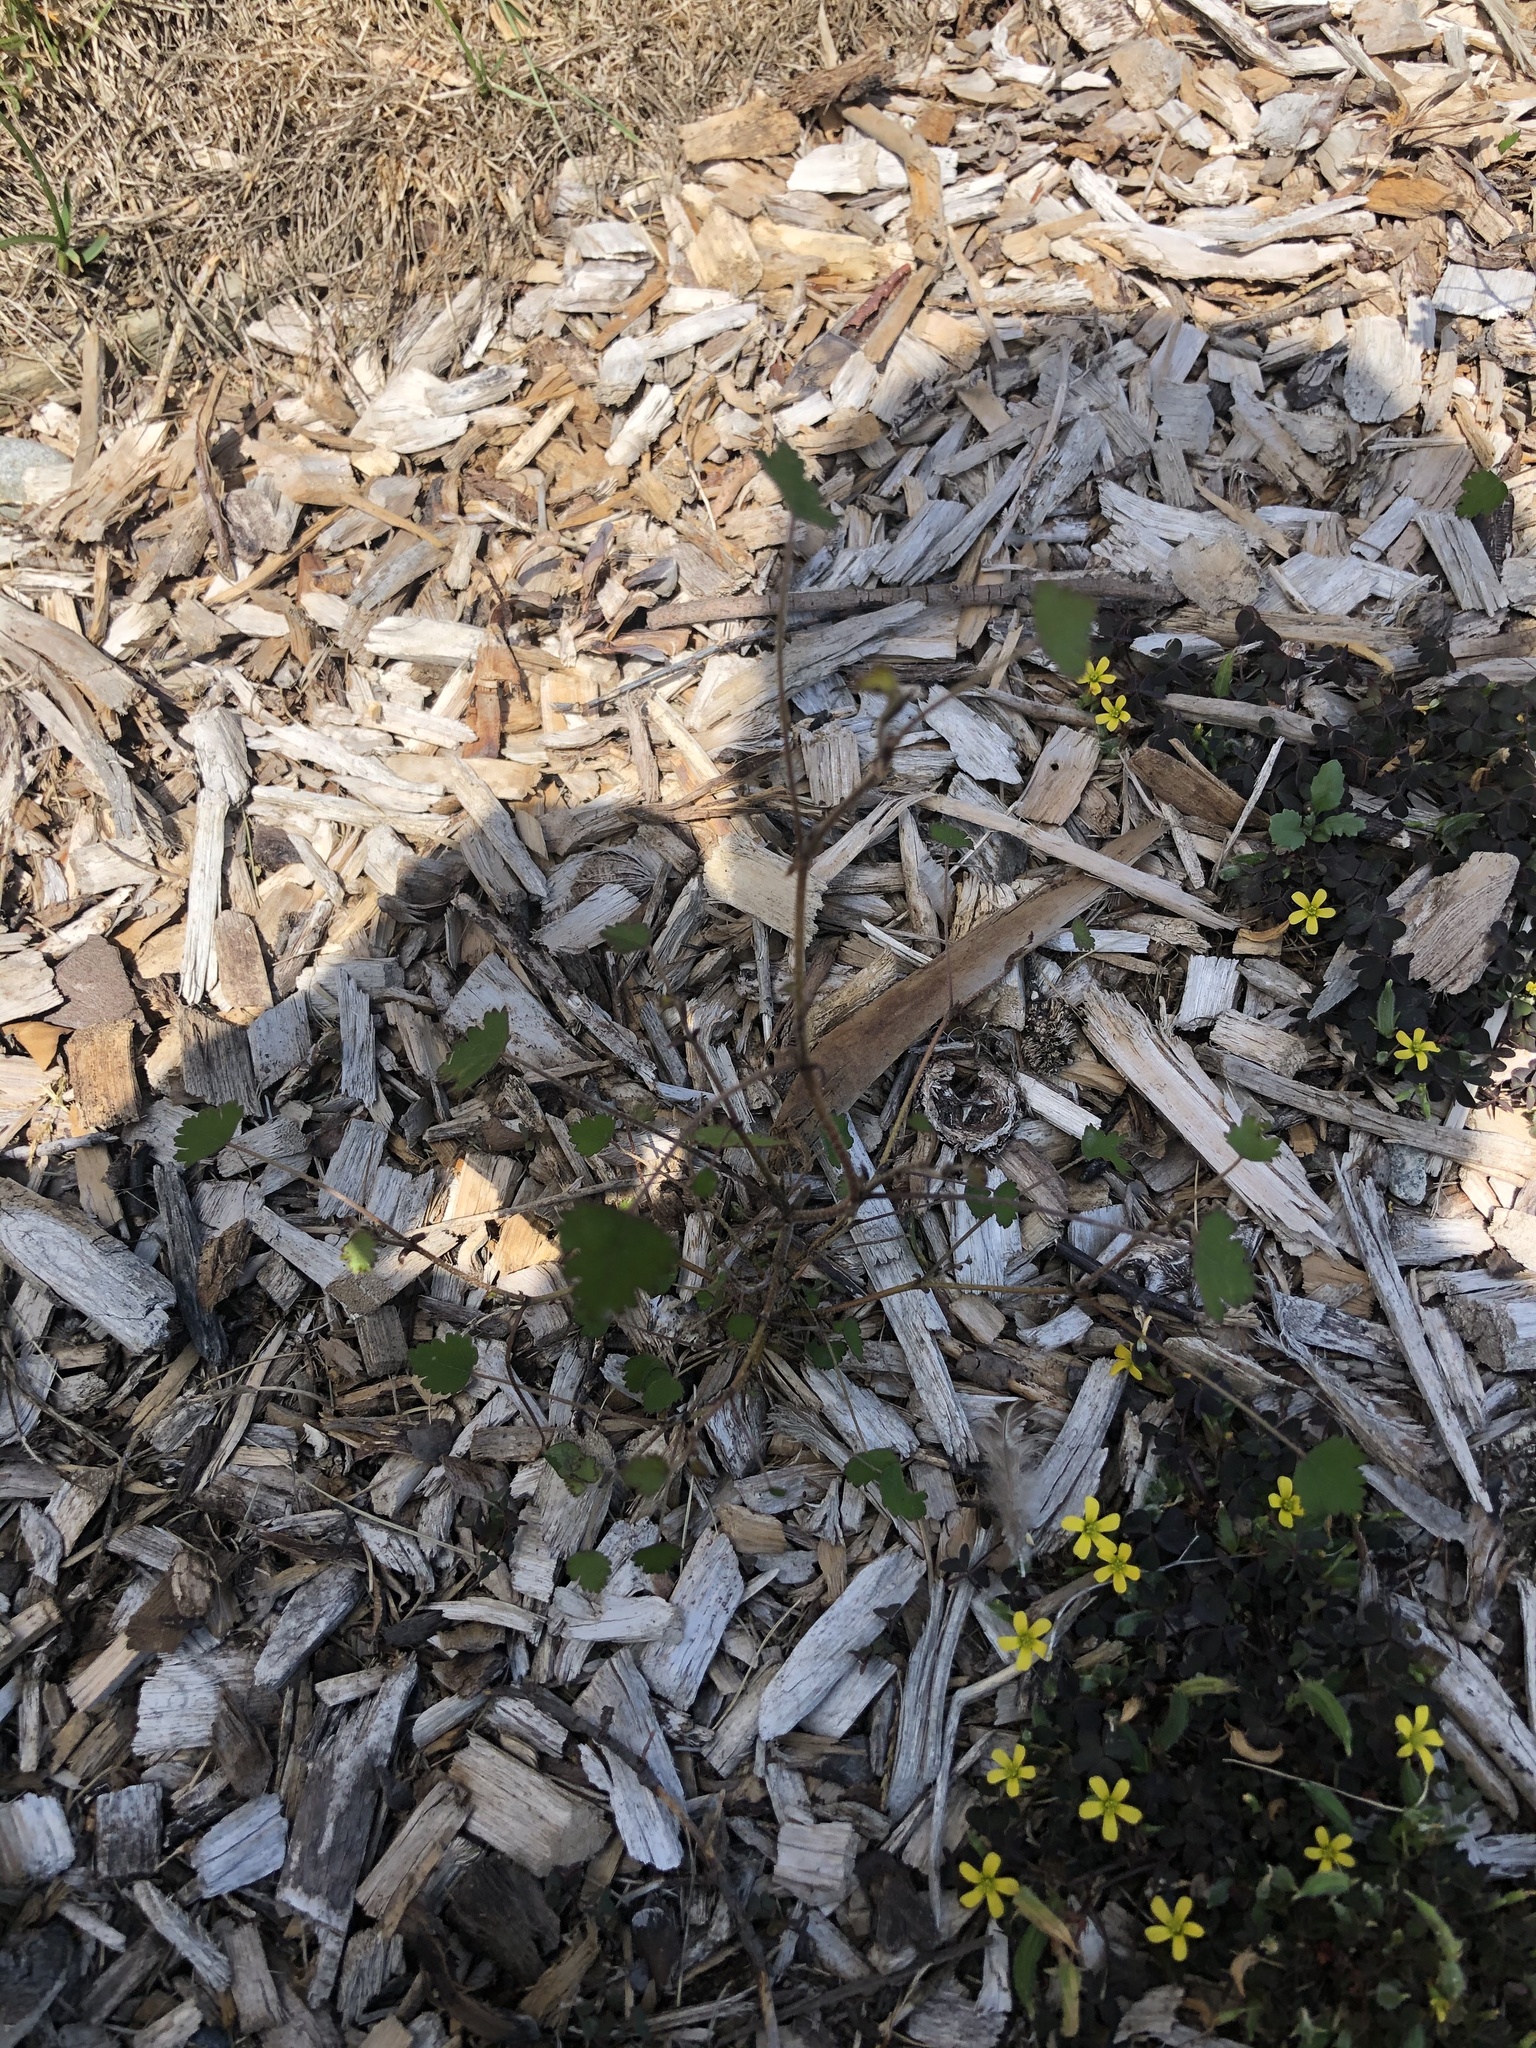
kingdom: Plantae
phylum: Tracheophyta
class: Magnoliopsida
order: Malvales
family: Malvaceae
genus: Plagianthus
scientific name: Plagianthus regius
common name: Manatu
